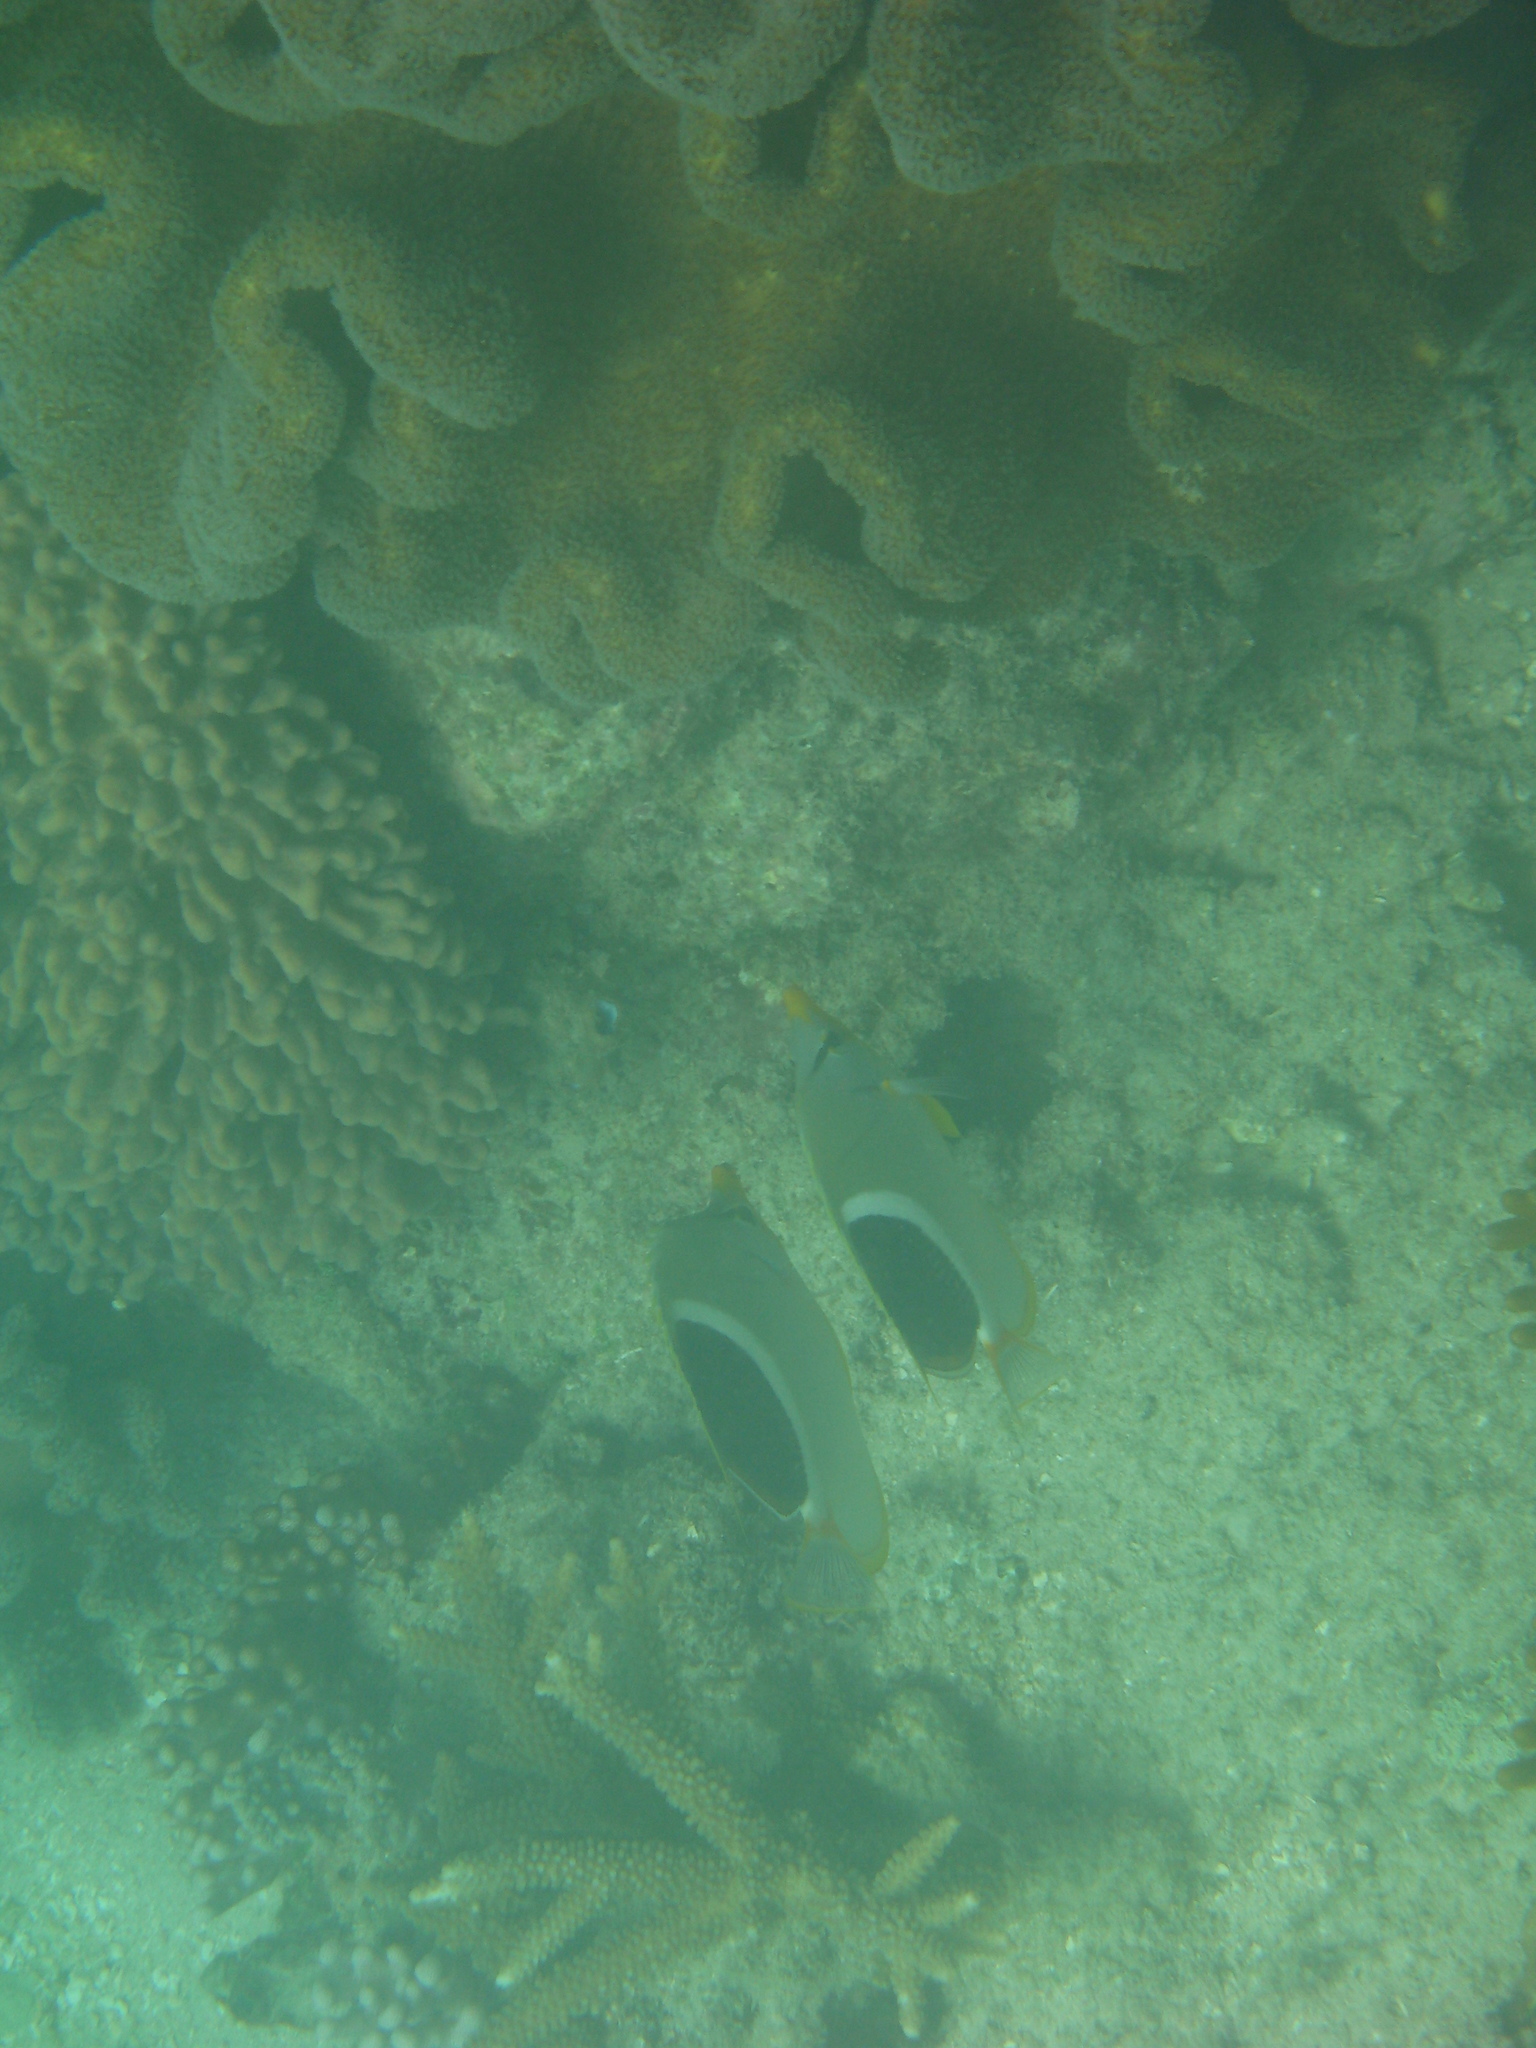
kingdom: Animalia
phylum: Chordata
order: Perciformes
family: Chaetodontidae
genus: Chaetodon
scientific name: Chaetodon ephippium
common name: Saddled butterflyfish
